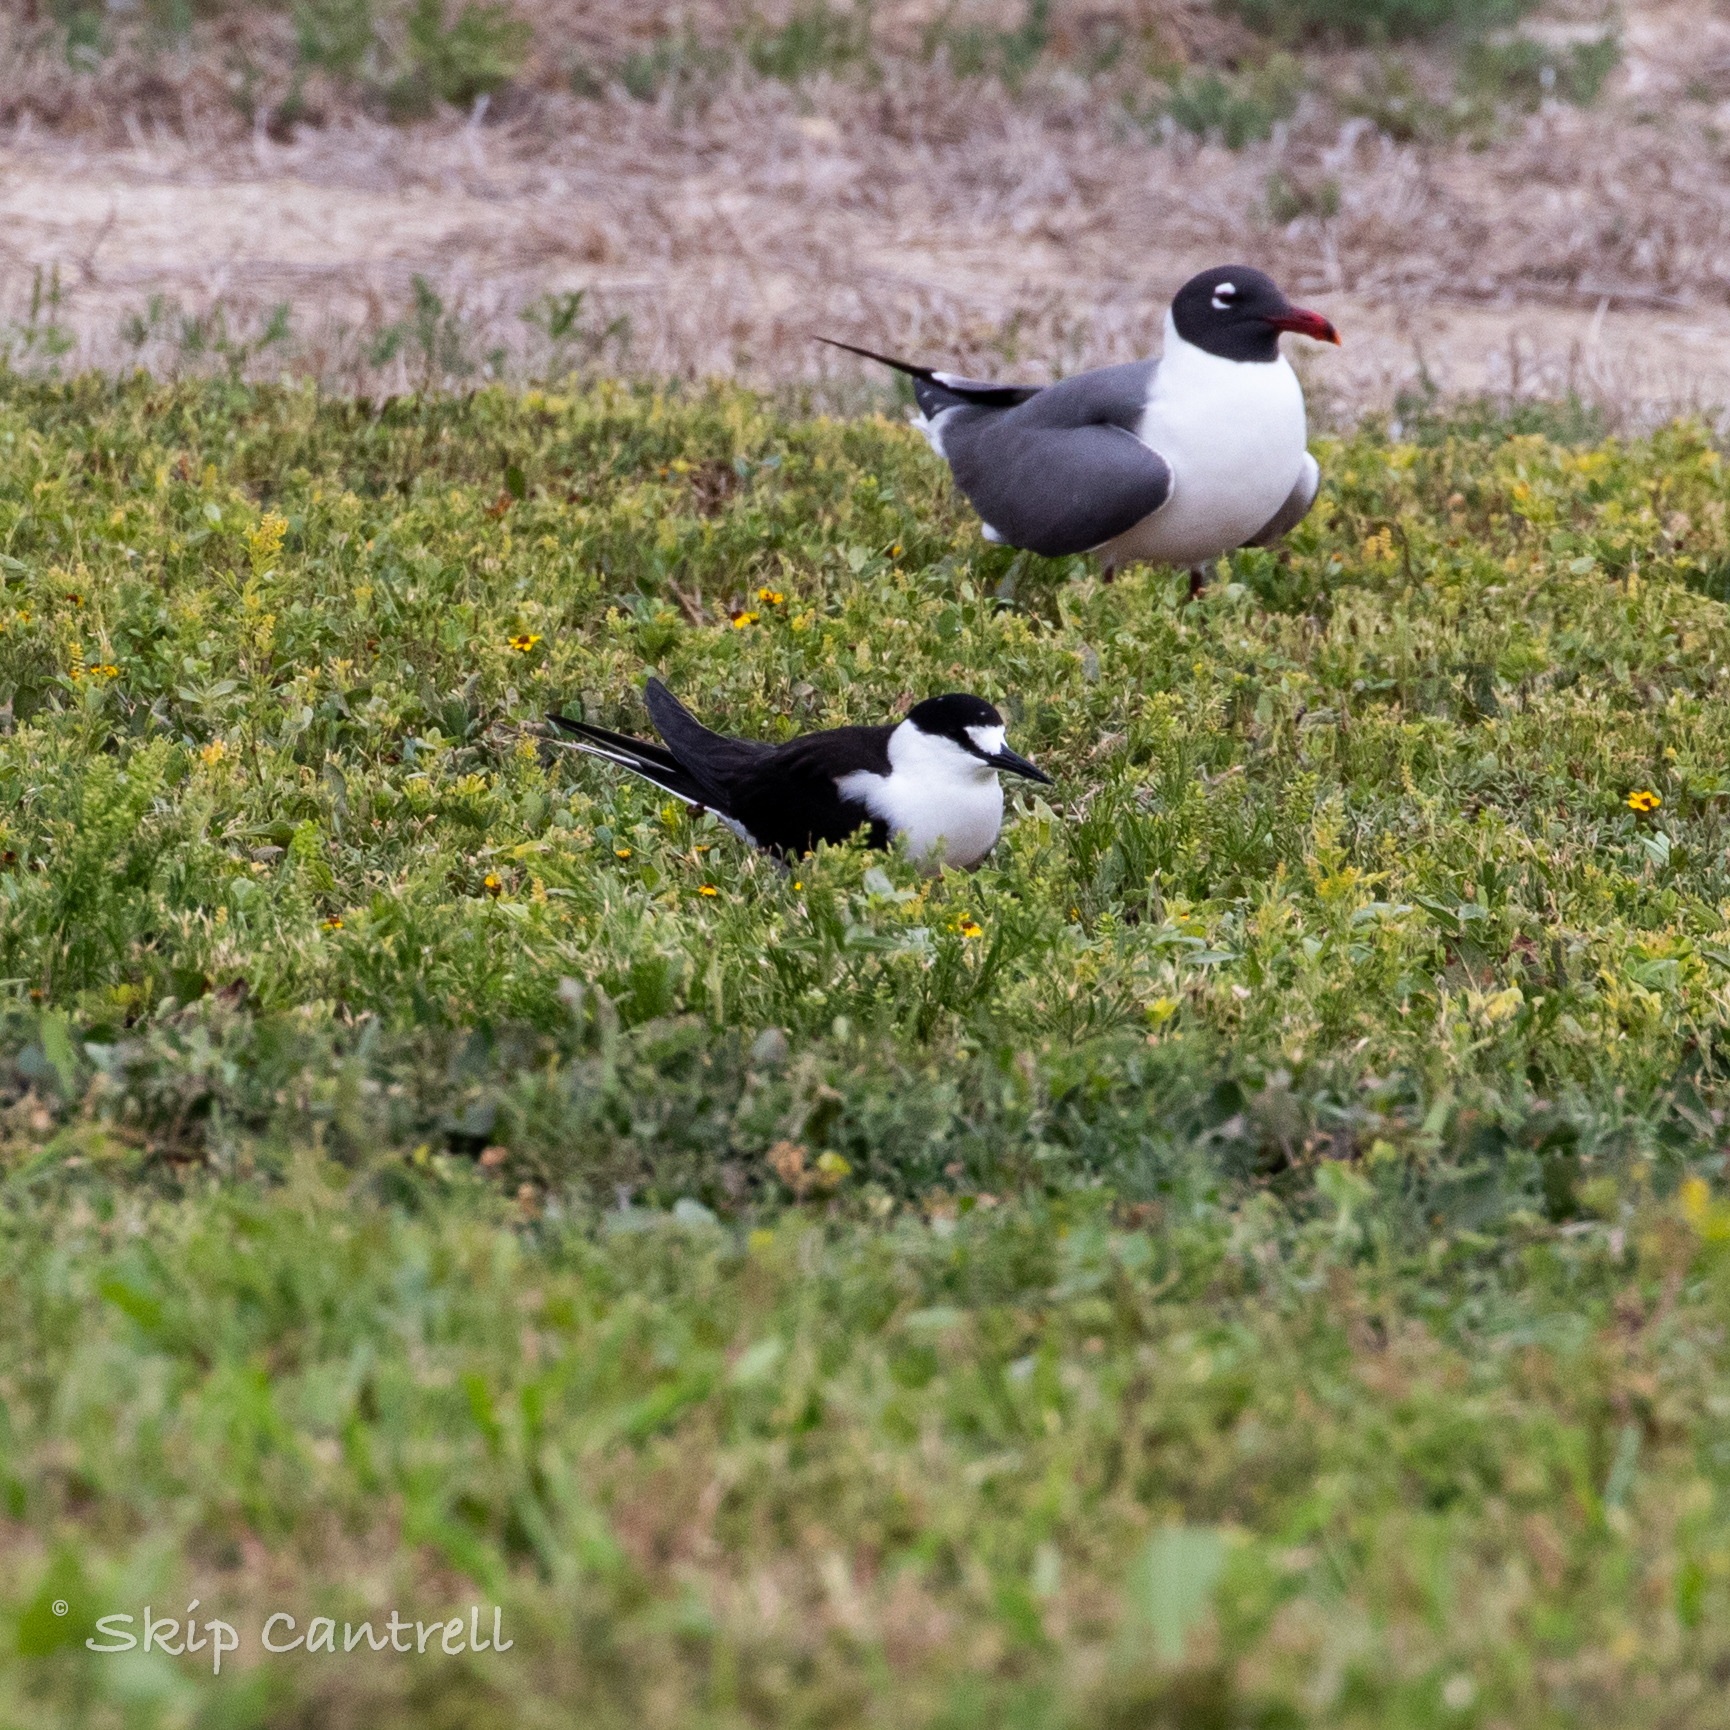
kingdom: Animalia
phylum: Chordata
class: Aves
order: Charadriiformes
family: Laridae
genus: Onychoprion
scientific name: Onychoprion fuscatus
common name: Sooty tern
